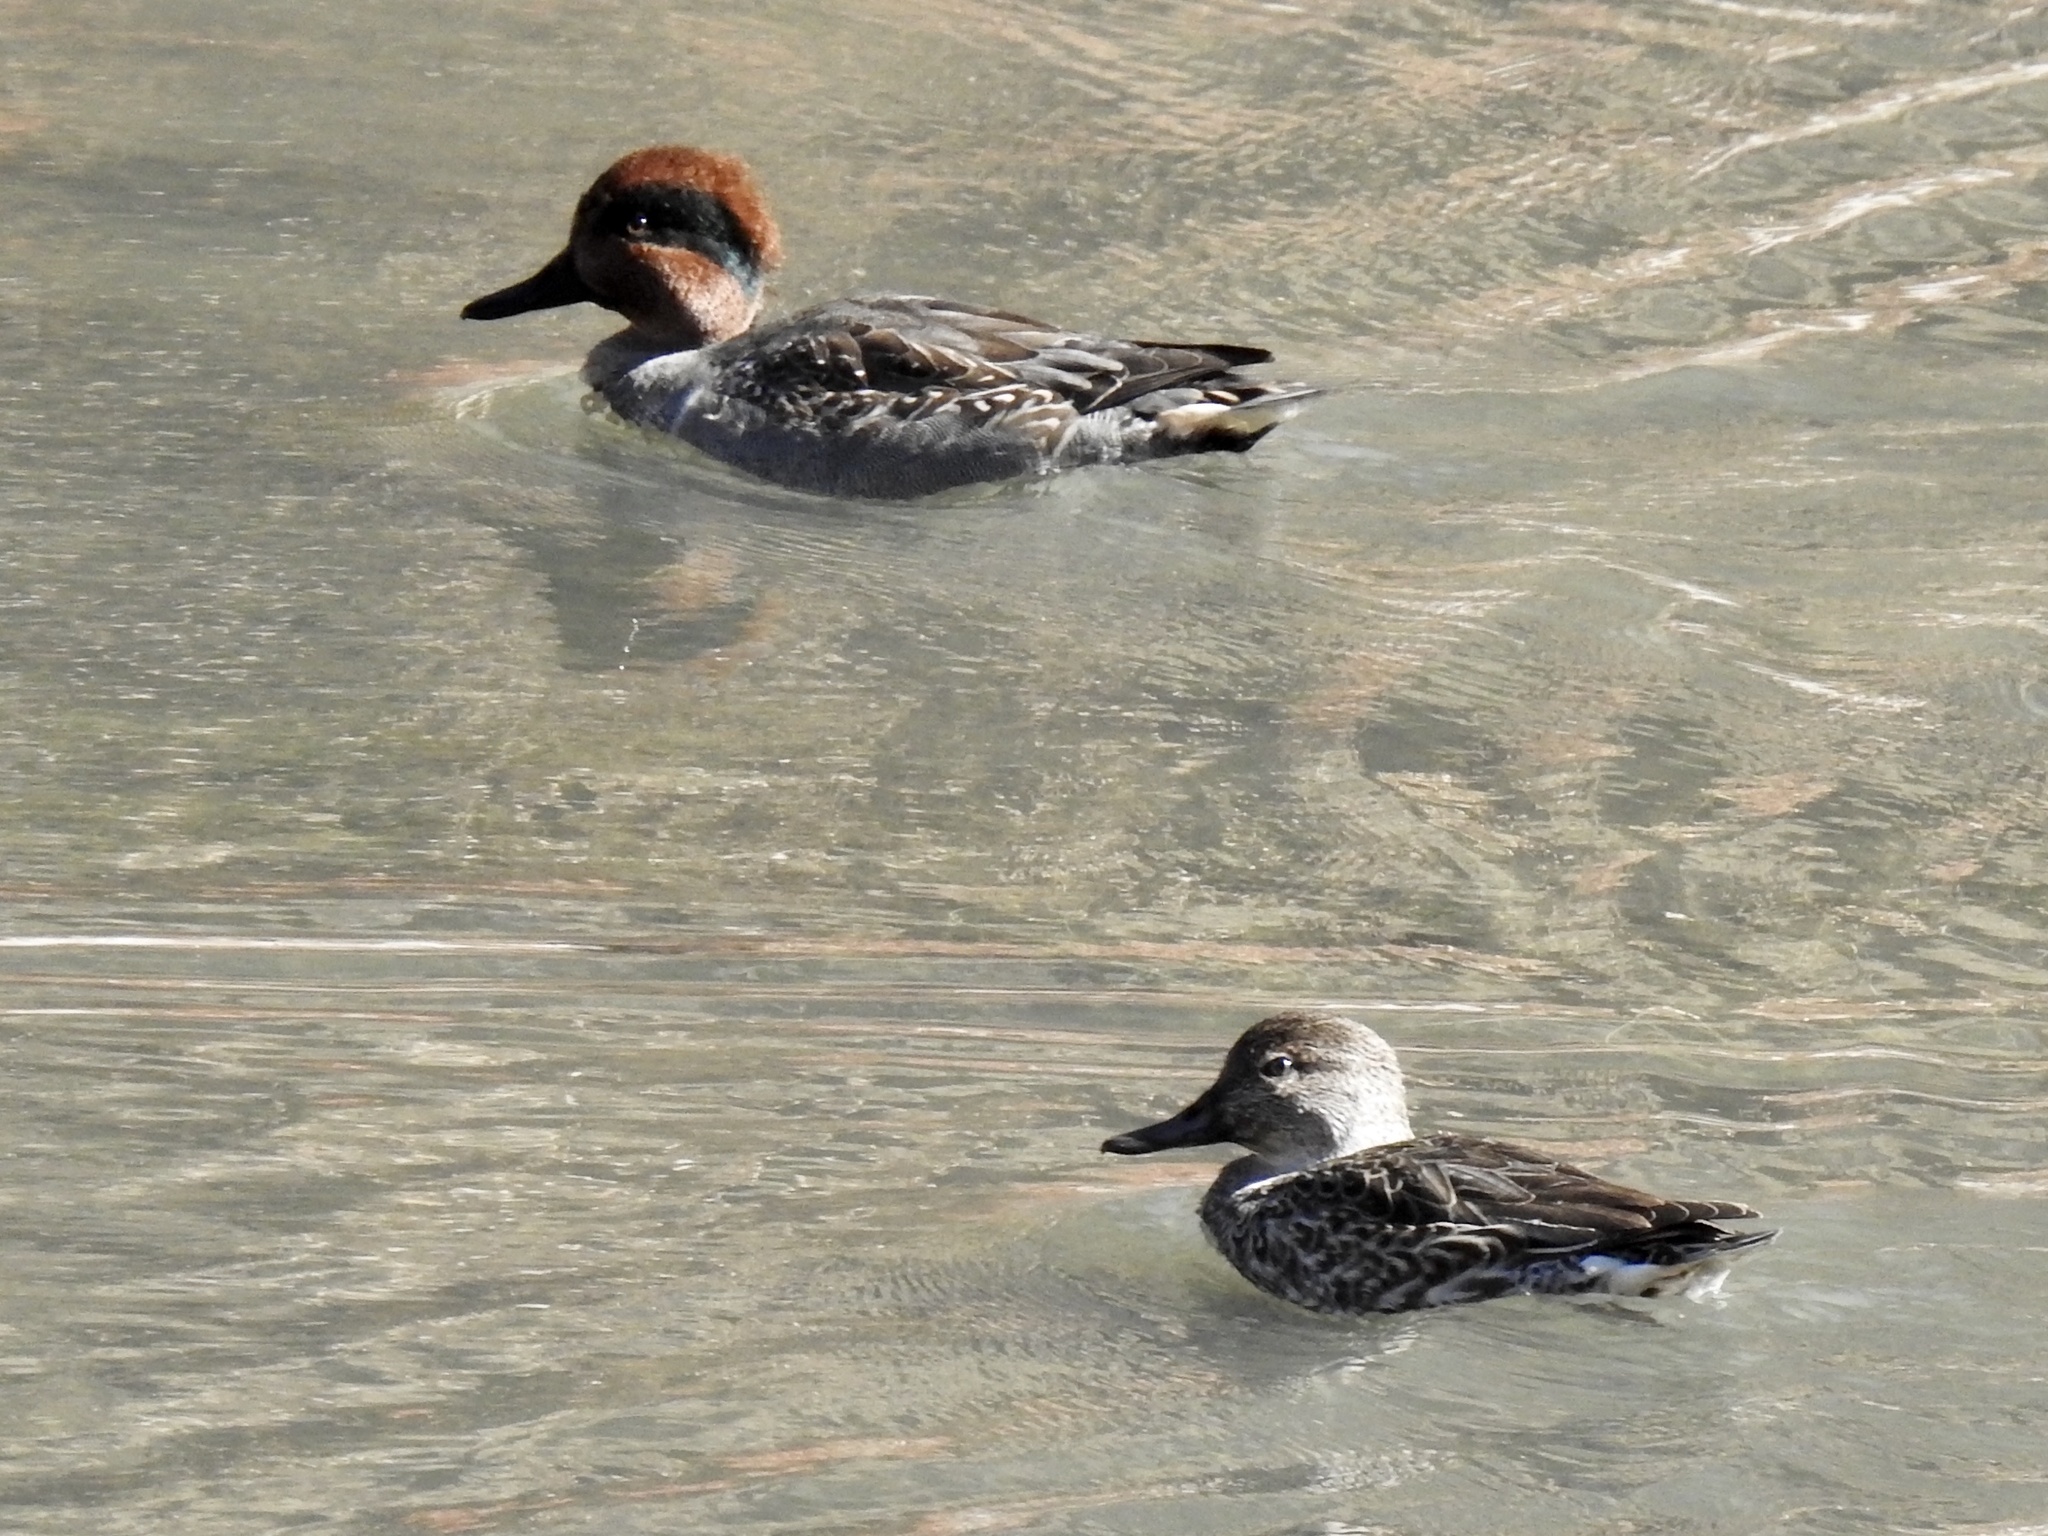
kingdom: Animalia
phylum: Chordata
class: Aves
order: Anseriformes
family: Anatidae
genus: Anas
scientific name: Anas crecca
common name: Eurasian teal
